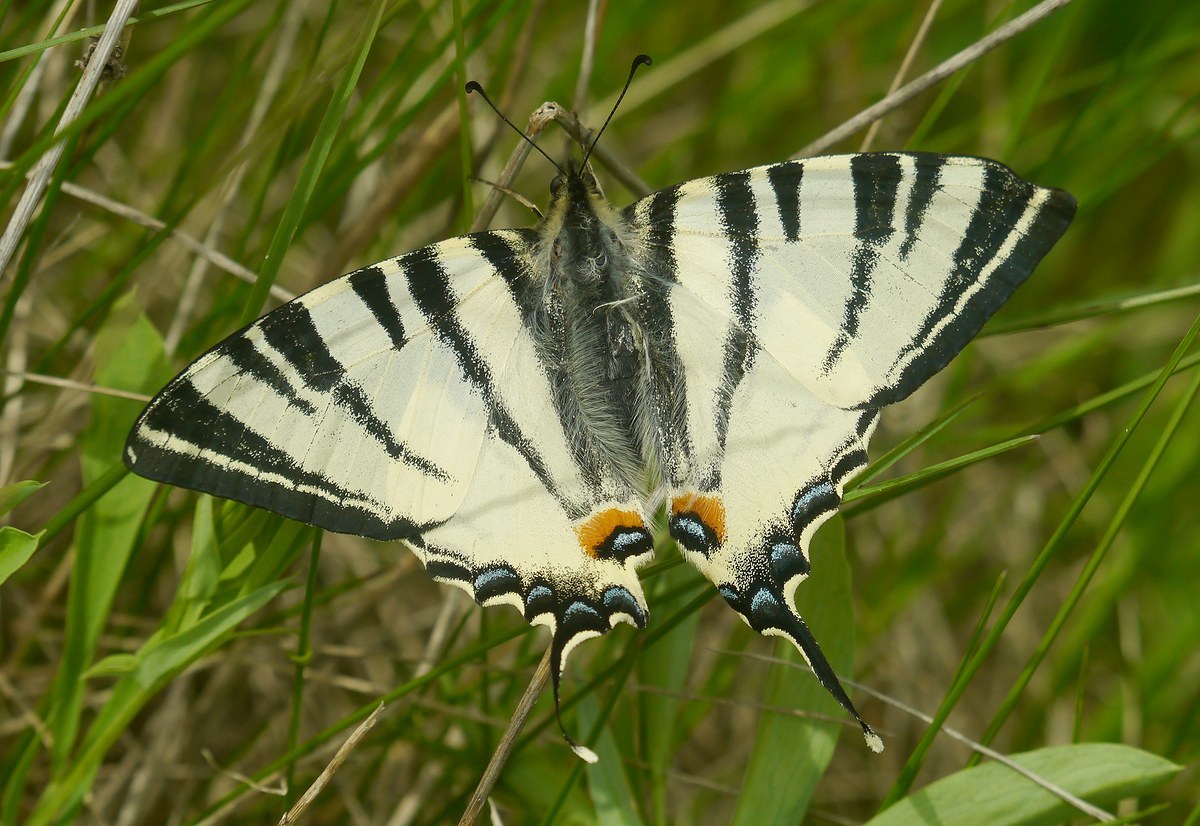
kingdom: Animalia
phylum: Arthropoda
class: Insecta
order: Lepidoptera
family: Papilionidae
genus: Iphiclides
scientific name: Iphiclides podalirius
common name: Scarce swallowtail
